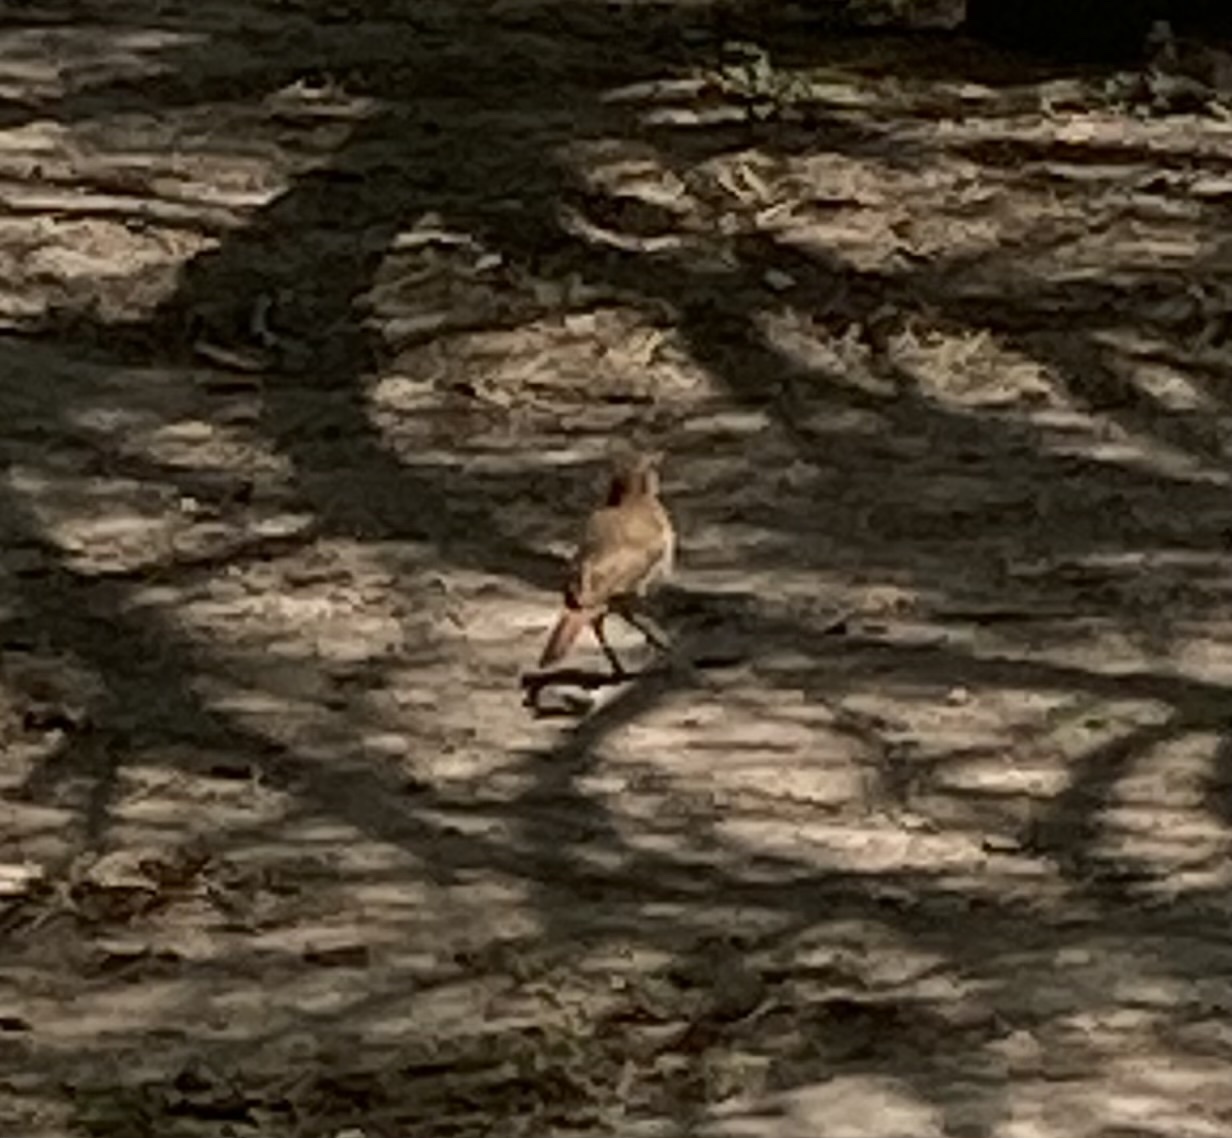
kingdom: Animalia
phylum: Chordata
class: Aves
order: Passeriformes
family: Furnariidae
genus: Furnarius
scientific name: Furnarius rufus
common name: Rufous hornero
